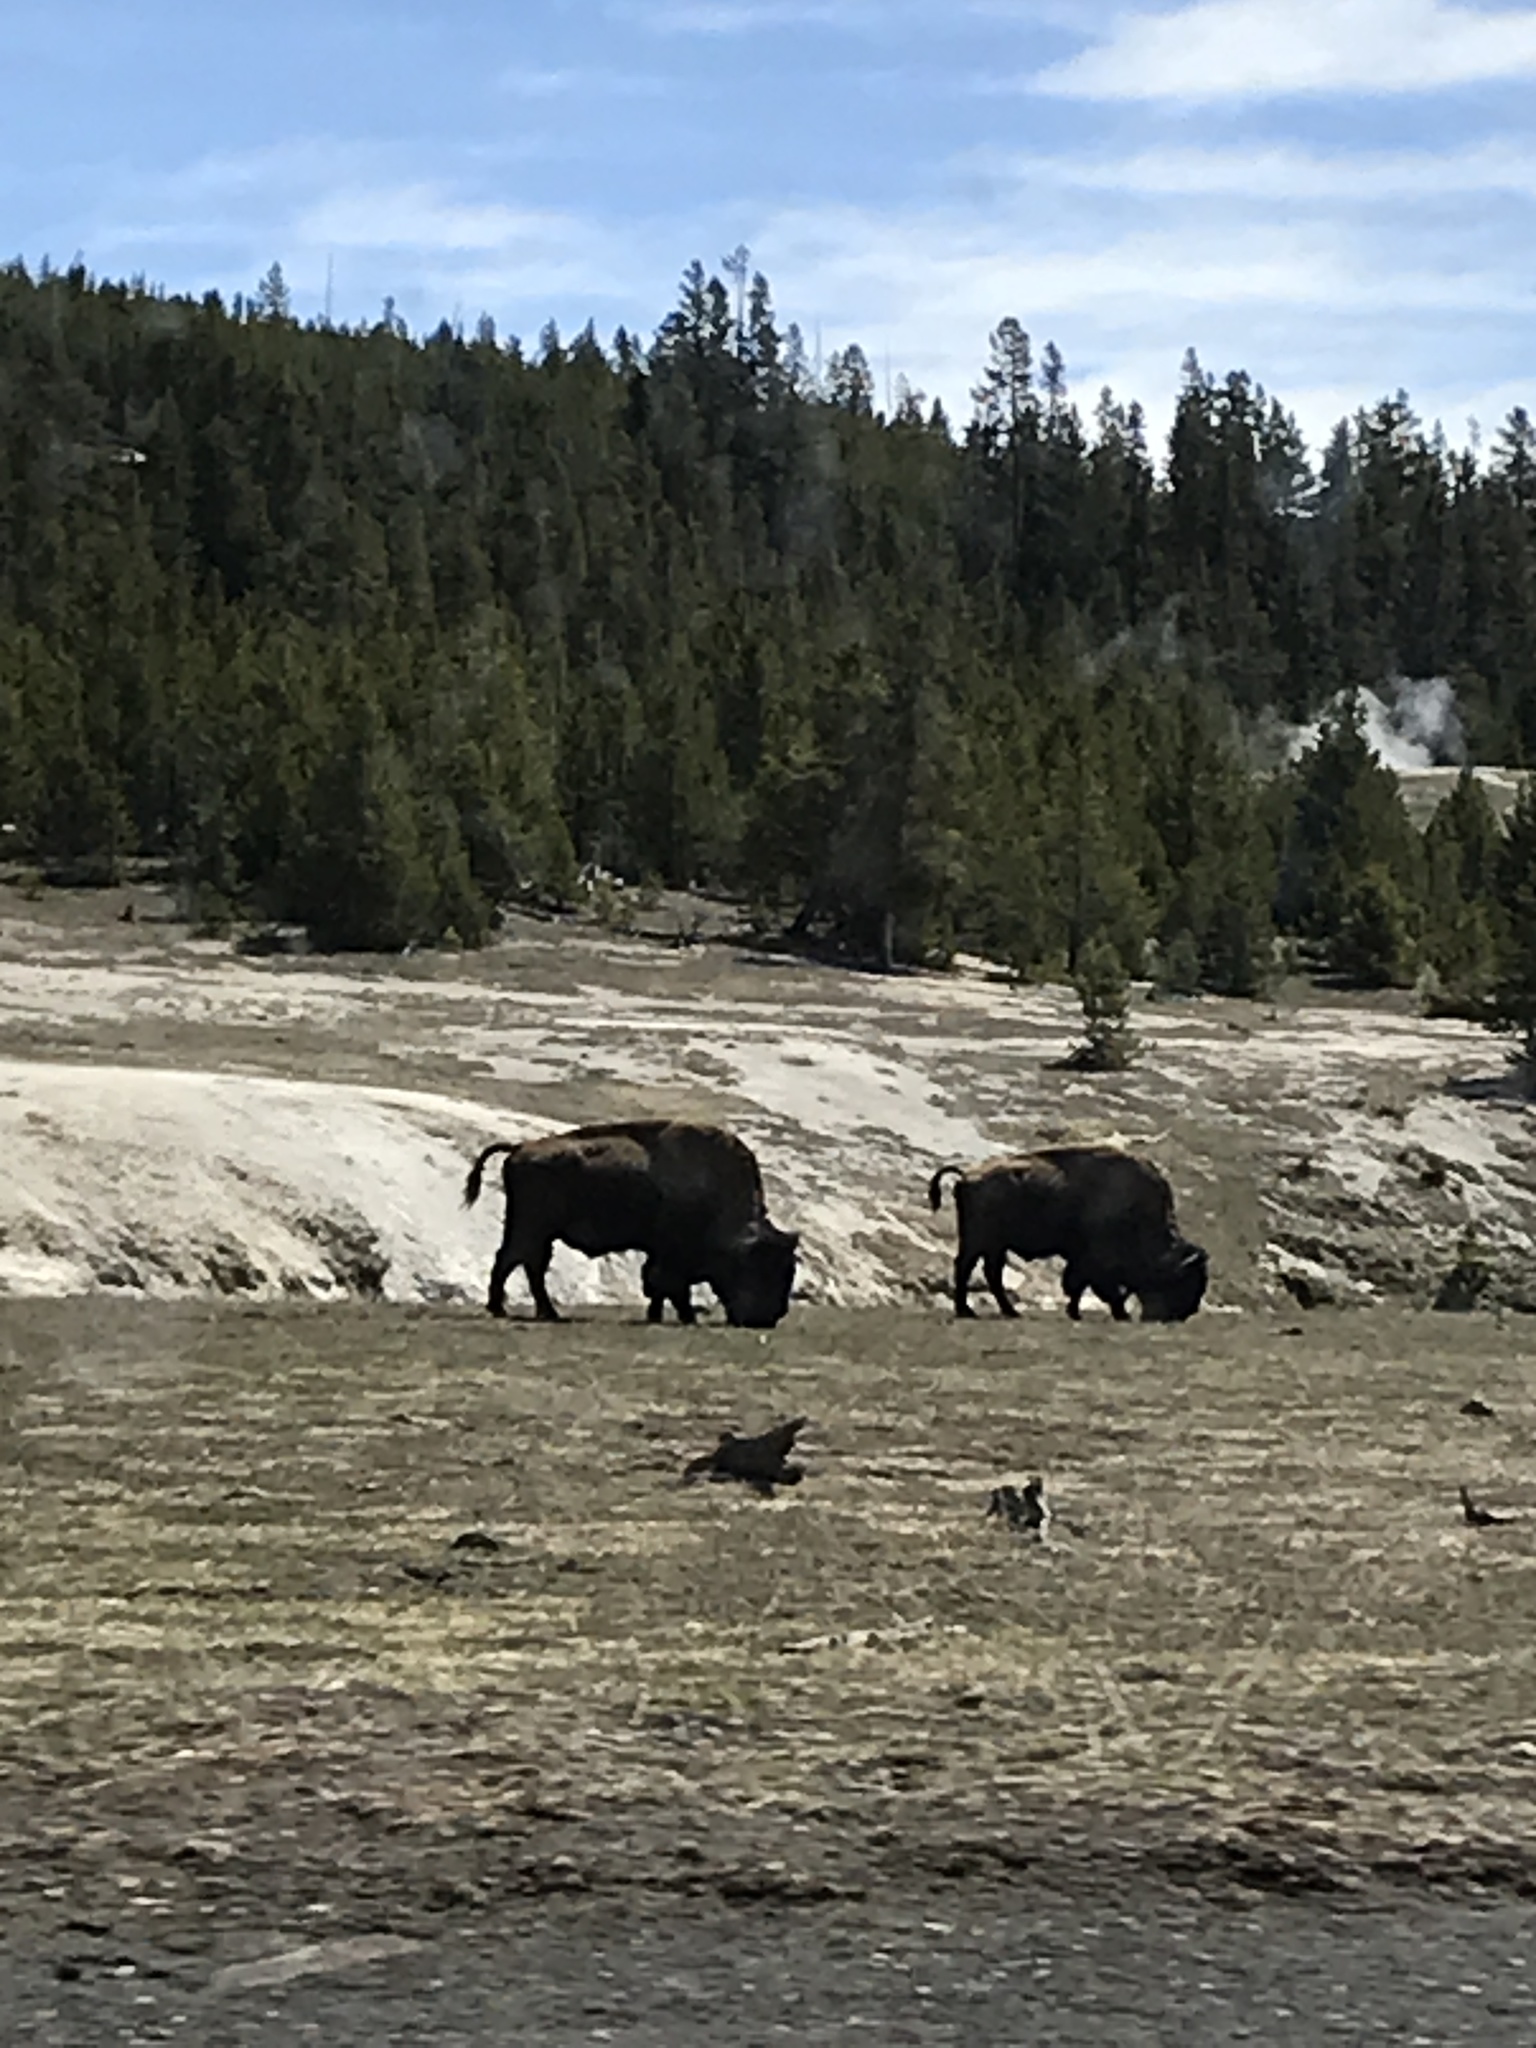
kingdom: Animalia
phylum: Chordata
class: Mammalia
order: Artiodactyla
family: Bovidae
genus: Bison
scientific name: Bison bison
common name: American bison
